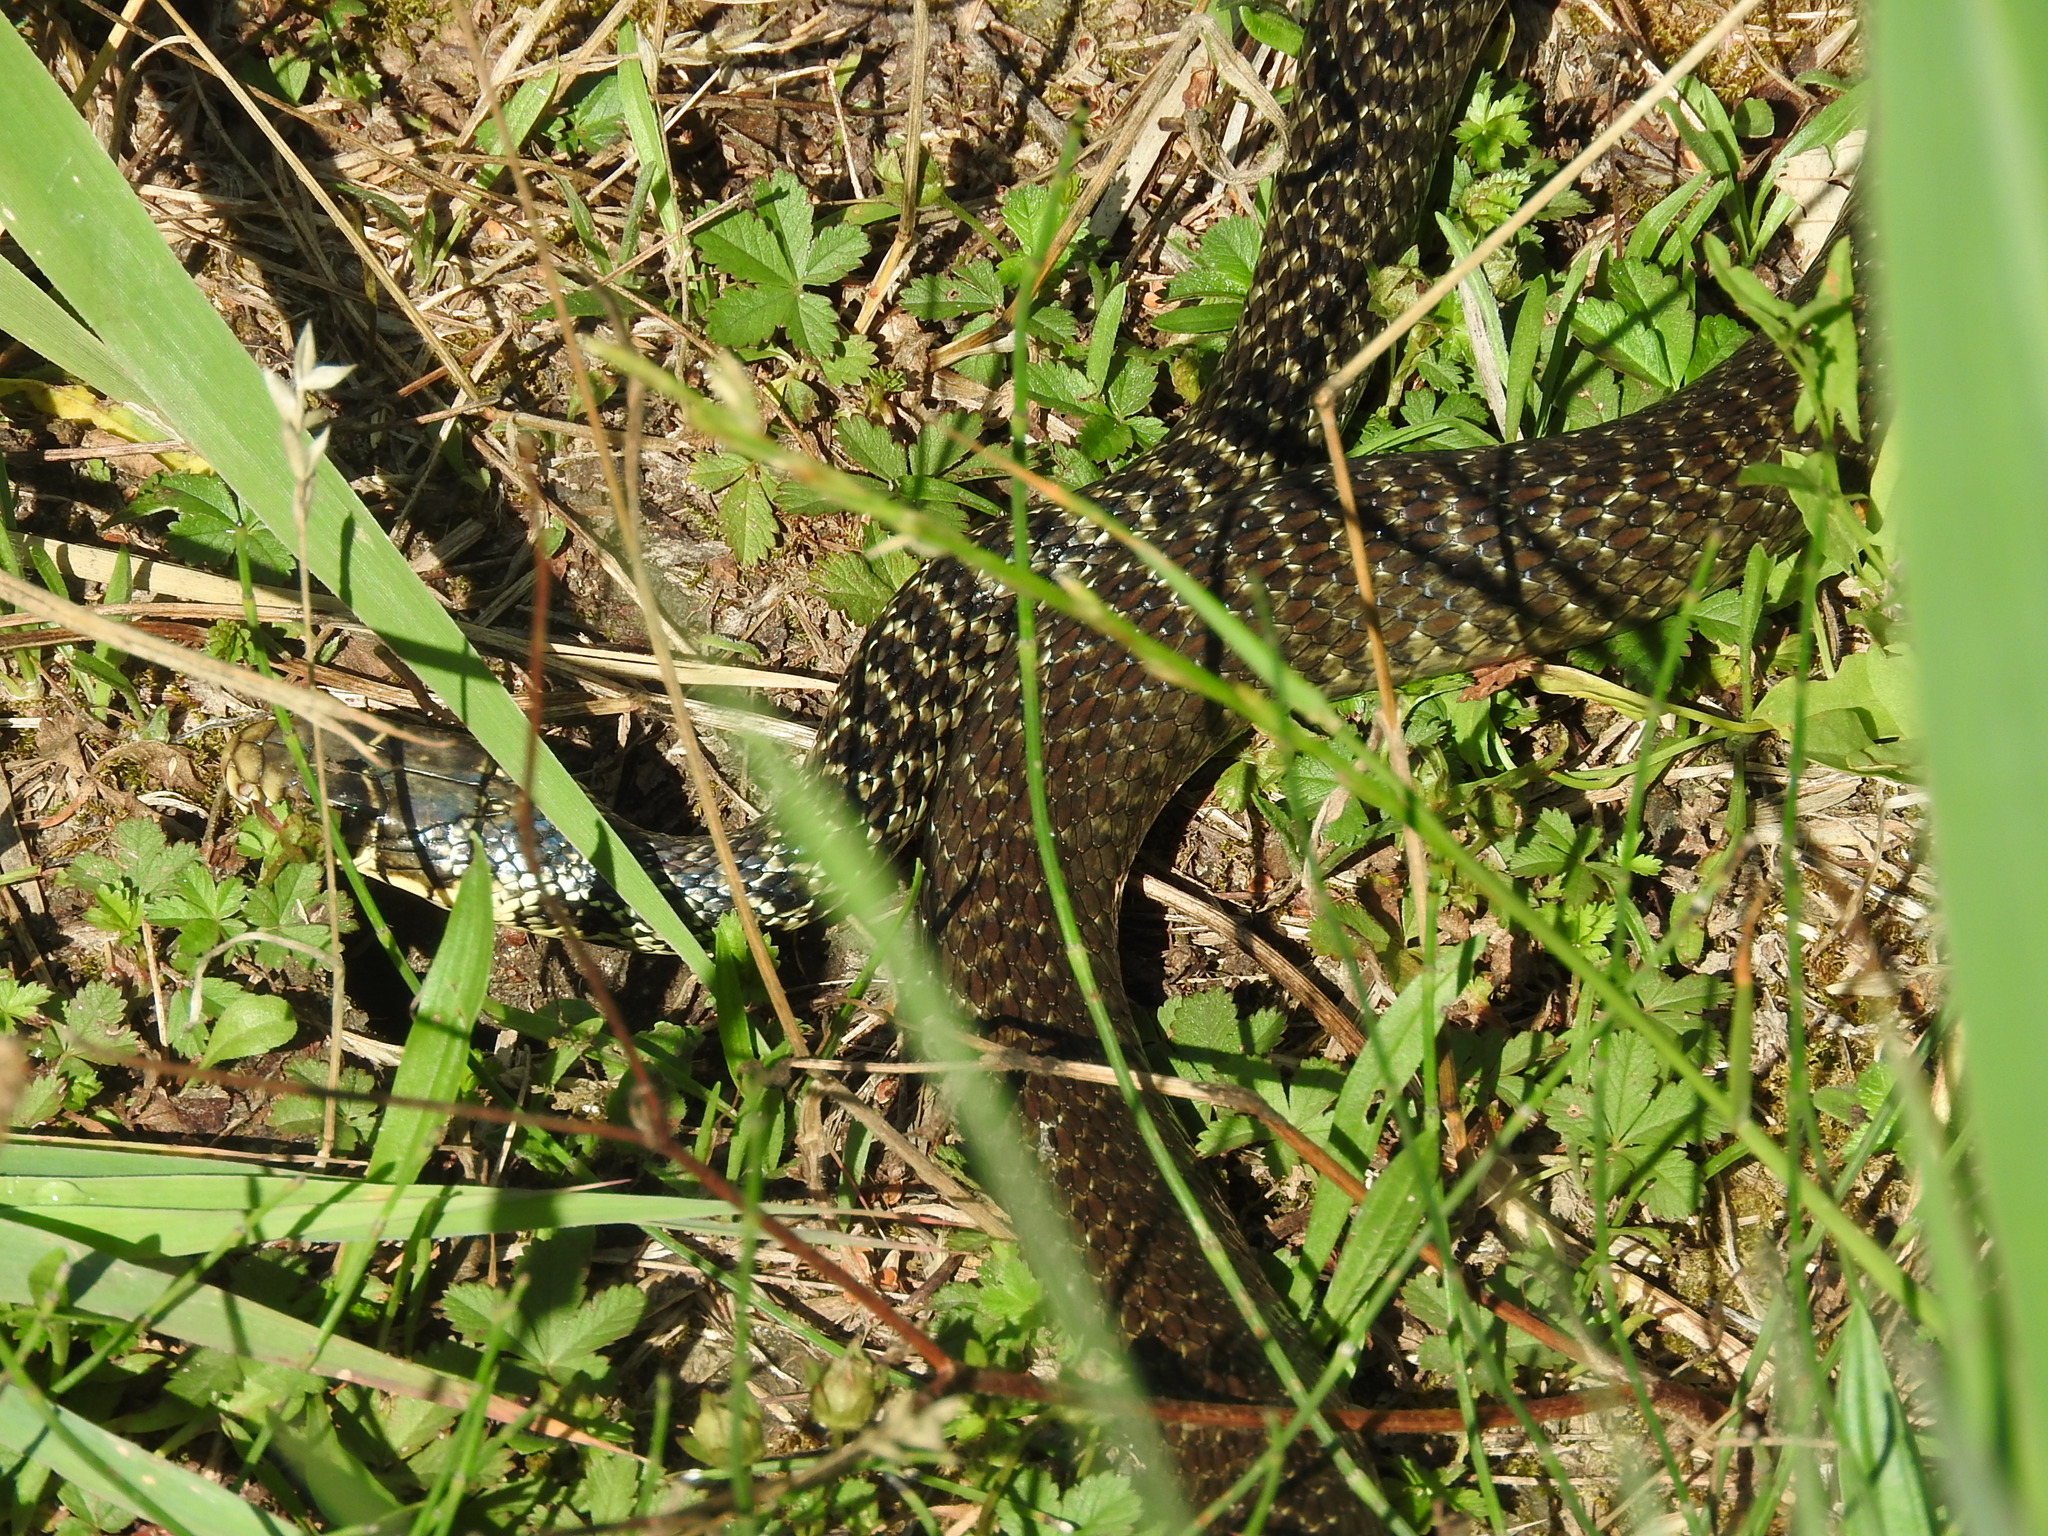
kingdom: Animalia
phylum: Chordata
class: Squamata
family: Colubridae
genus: Hierophis
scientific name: Hierophis viridiflavus
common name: Green whip snake
